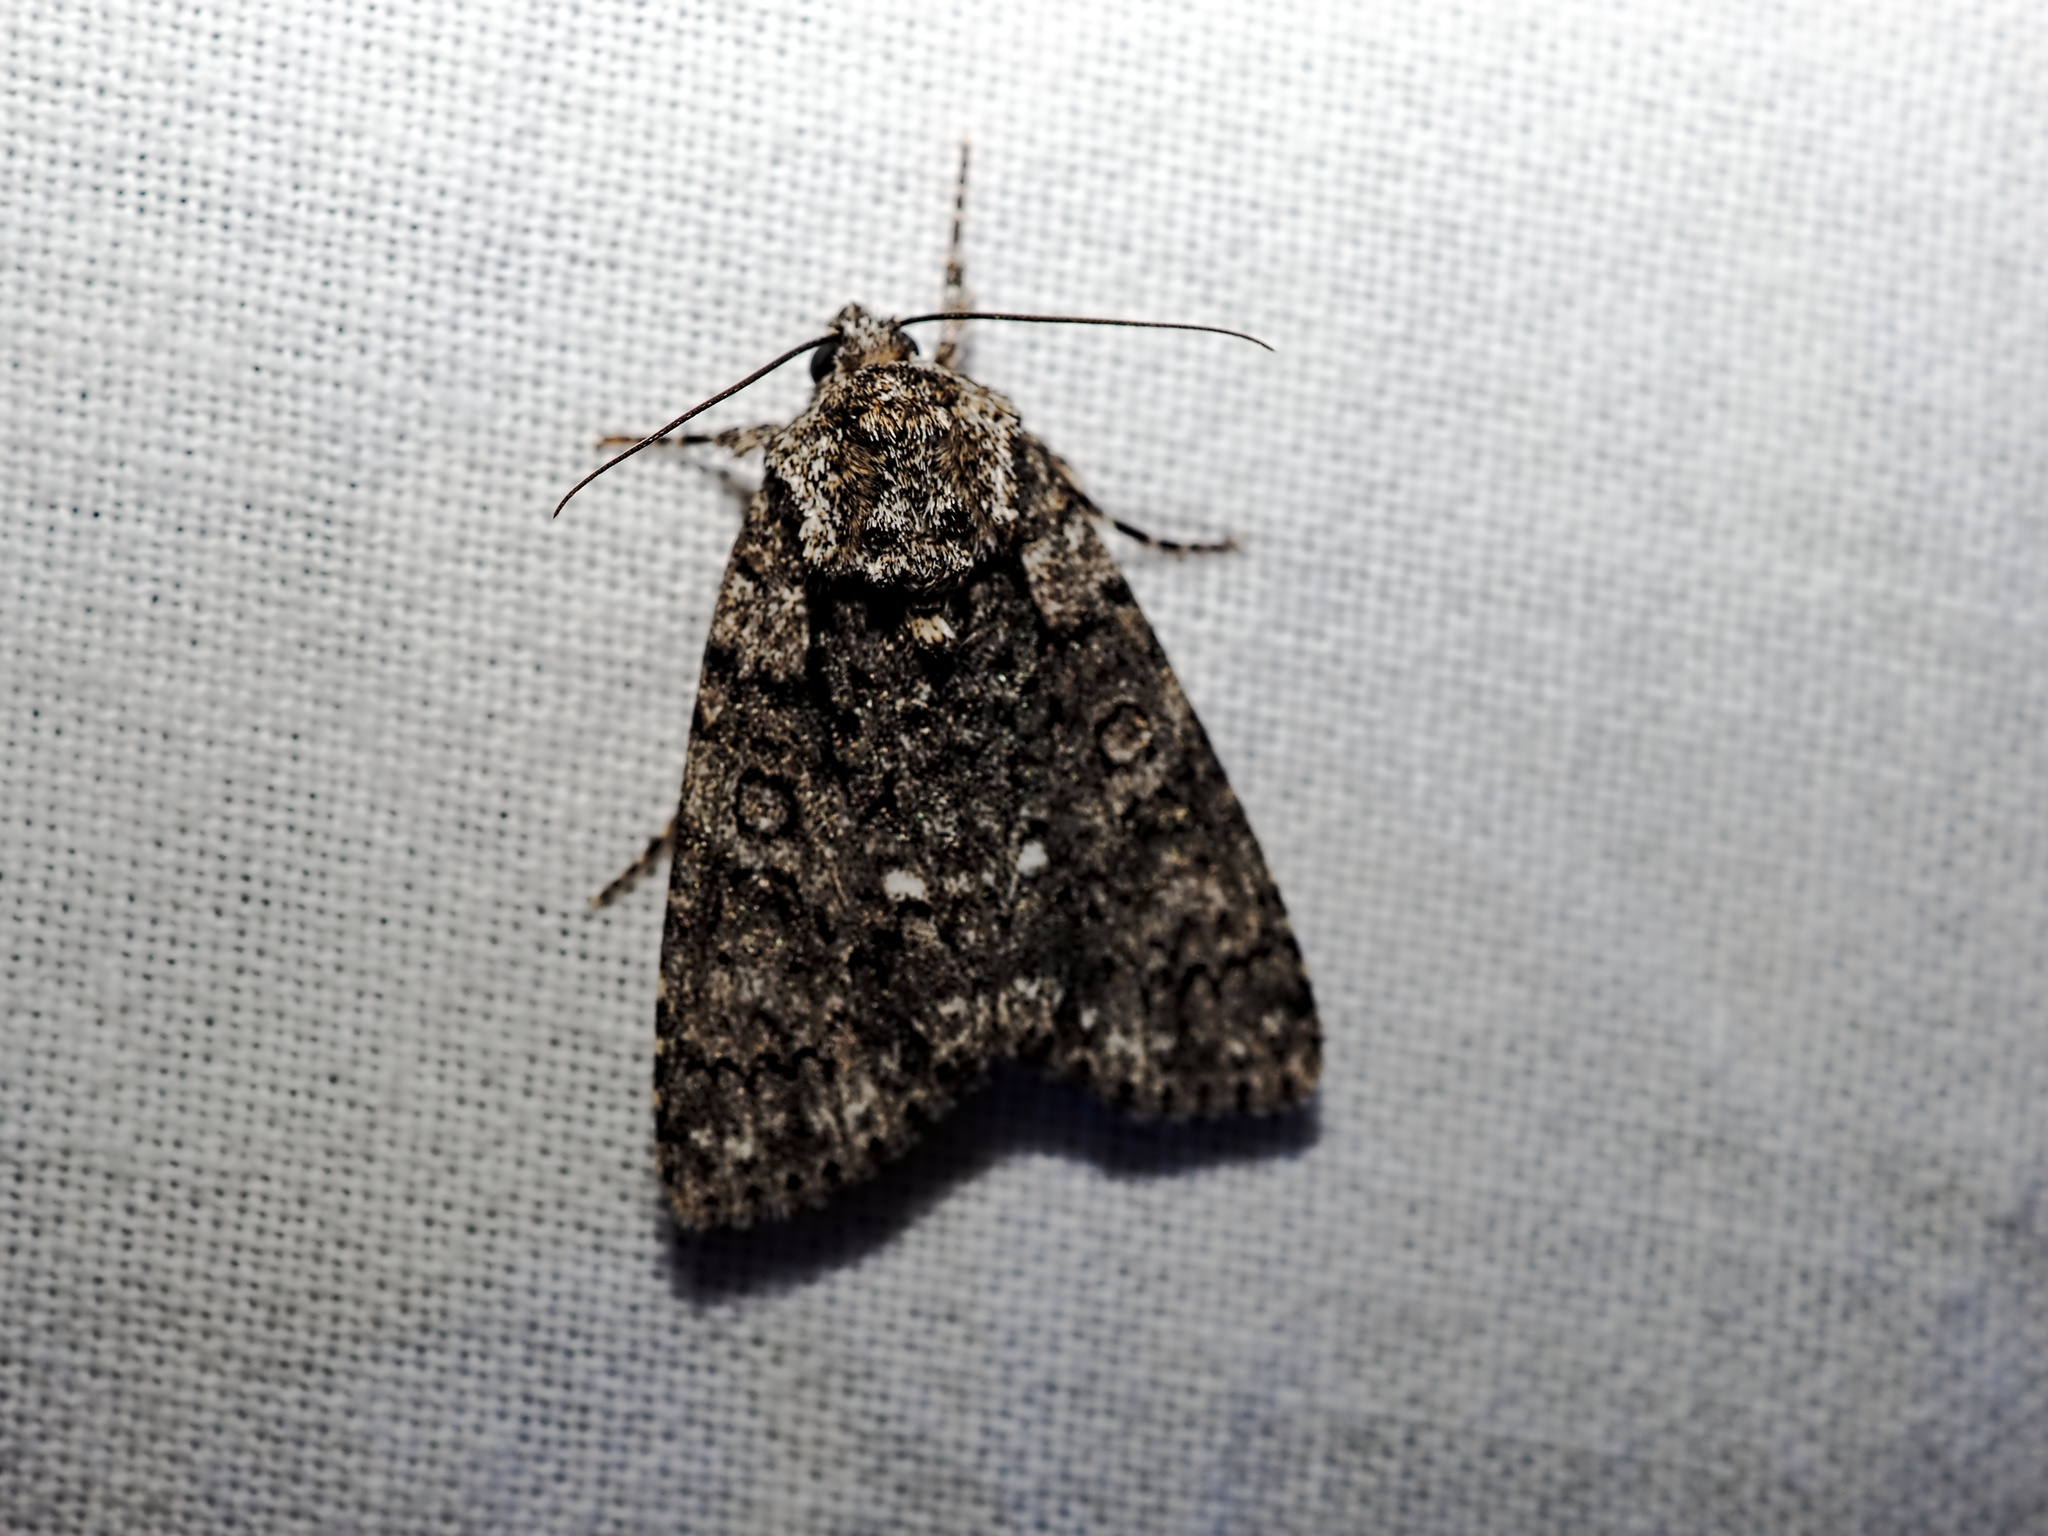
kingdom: Animalia
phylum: Arthropoda
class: Insecta
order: Lepidoptera
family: Noctuidae
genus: Acronicta
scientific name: Acronicta rumicis
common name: Knot grass
